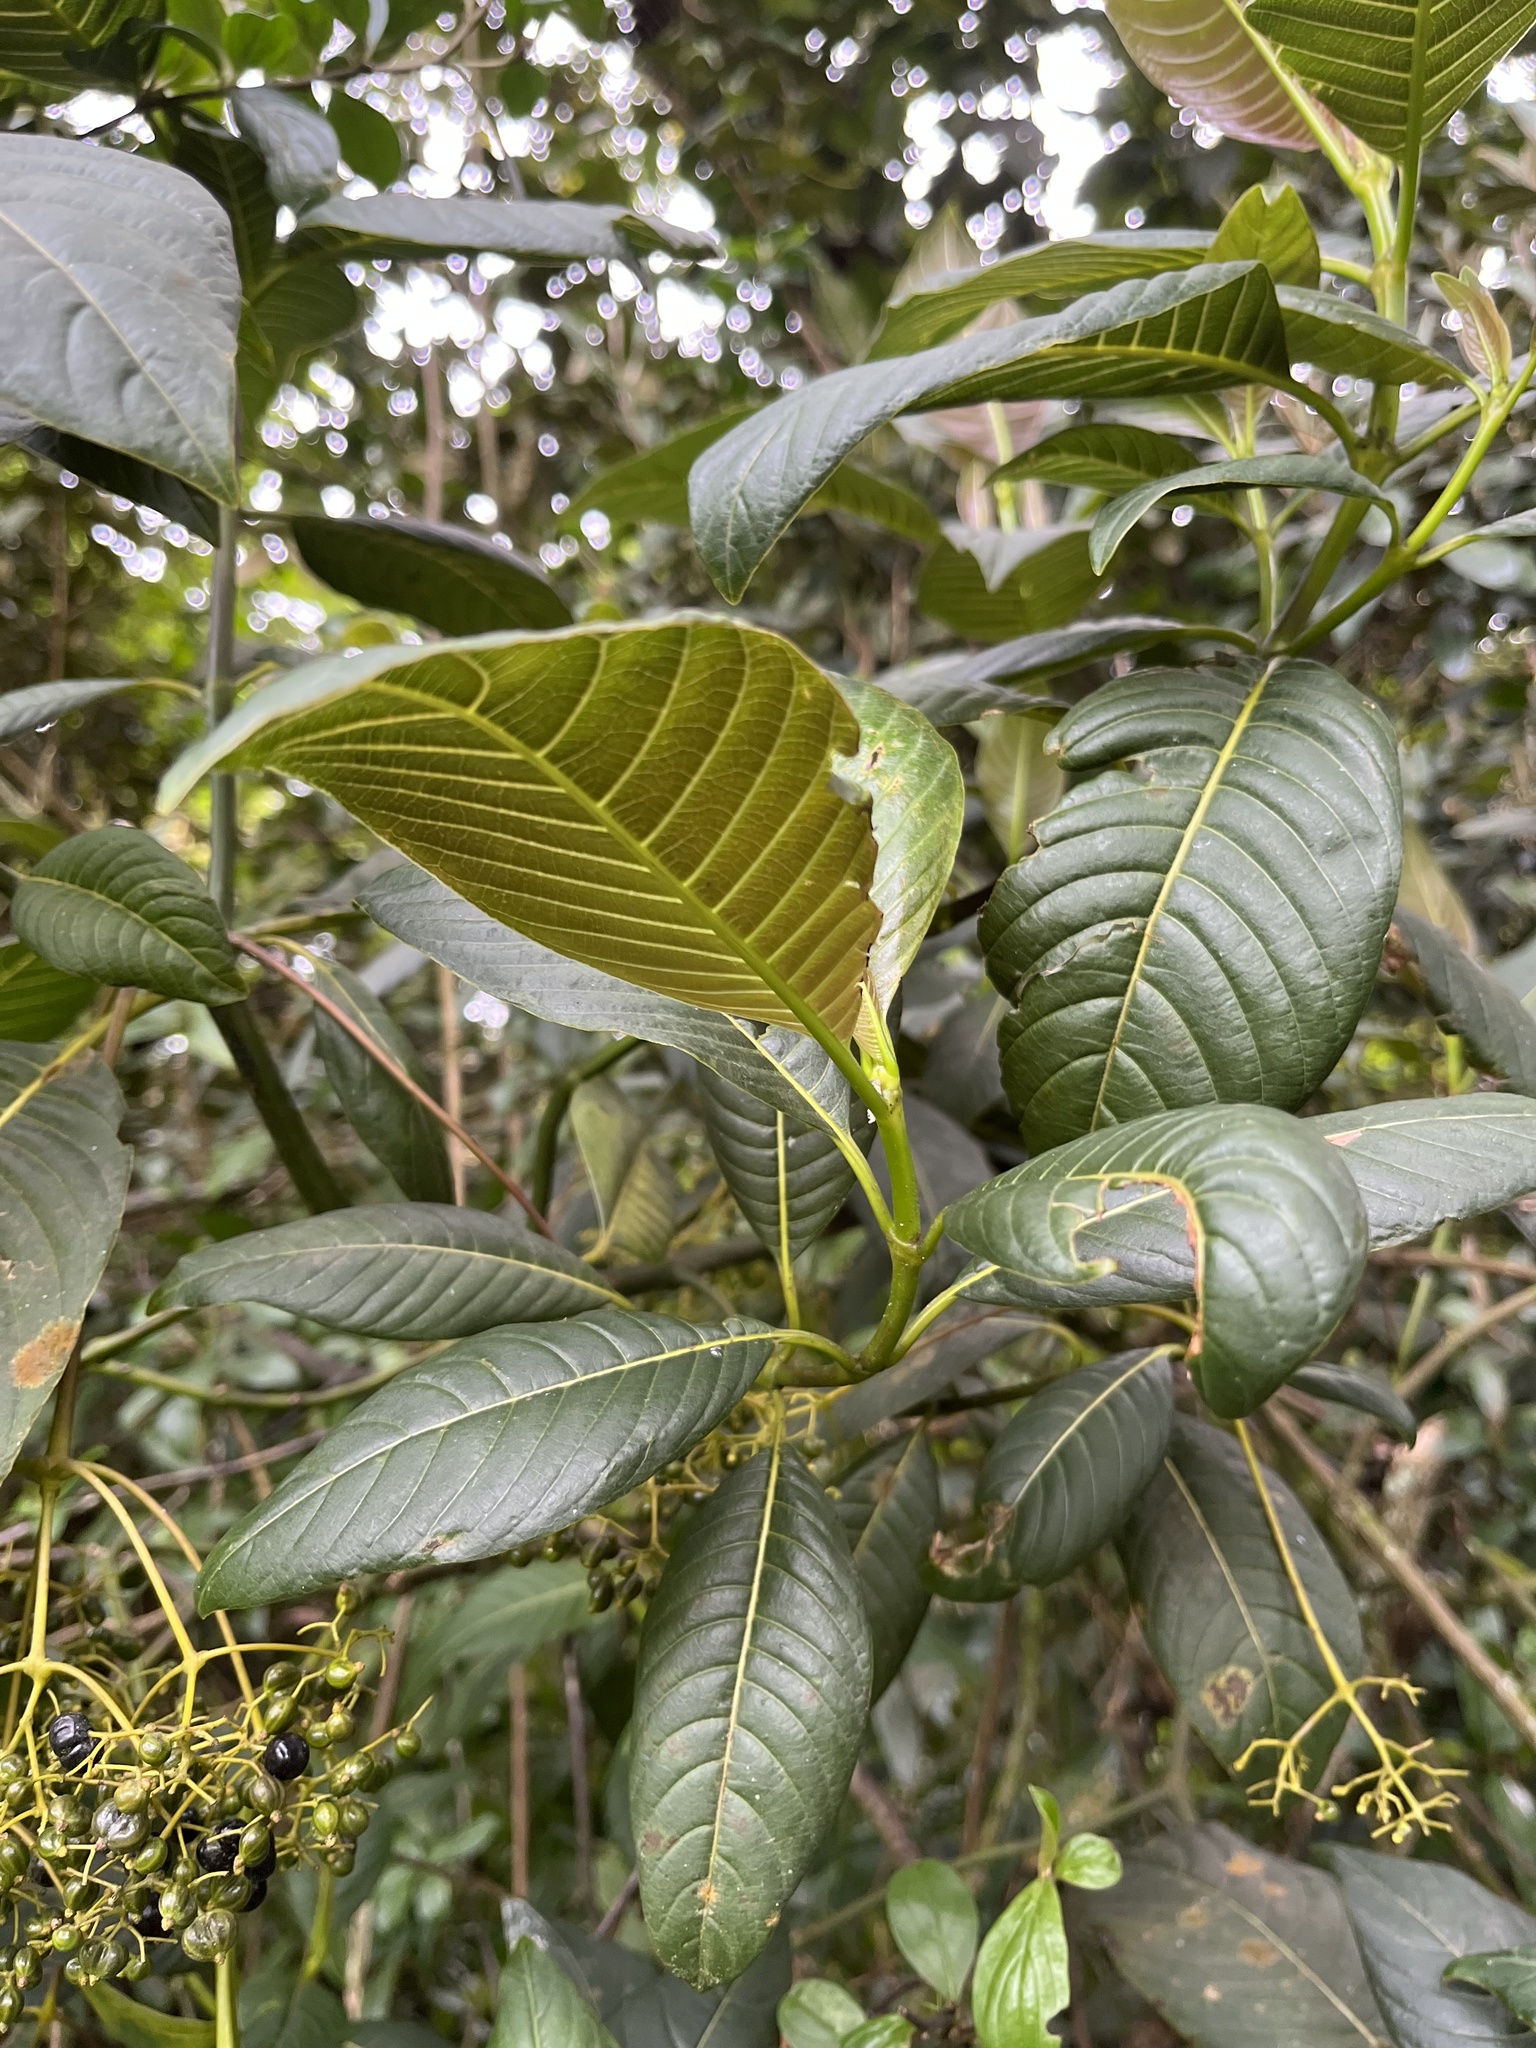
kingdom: Plantae
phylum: Tracheophyta
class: Magnoliopsida
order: Gentianales
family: Rubiaceae
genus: Palicourea
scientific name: Palicourea lineariflora
